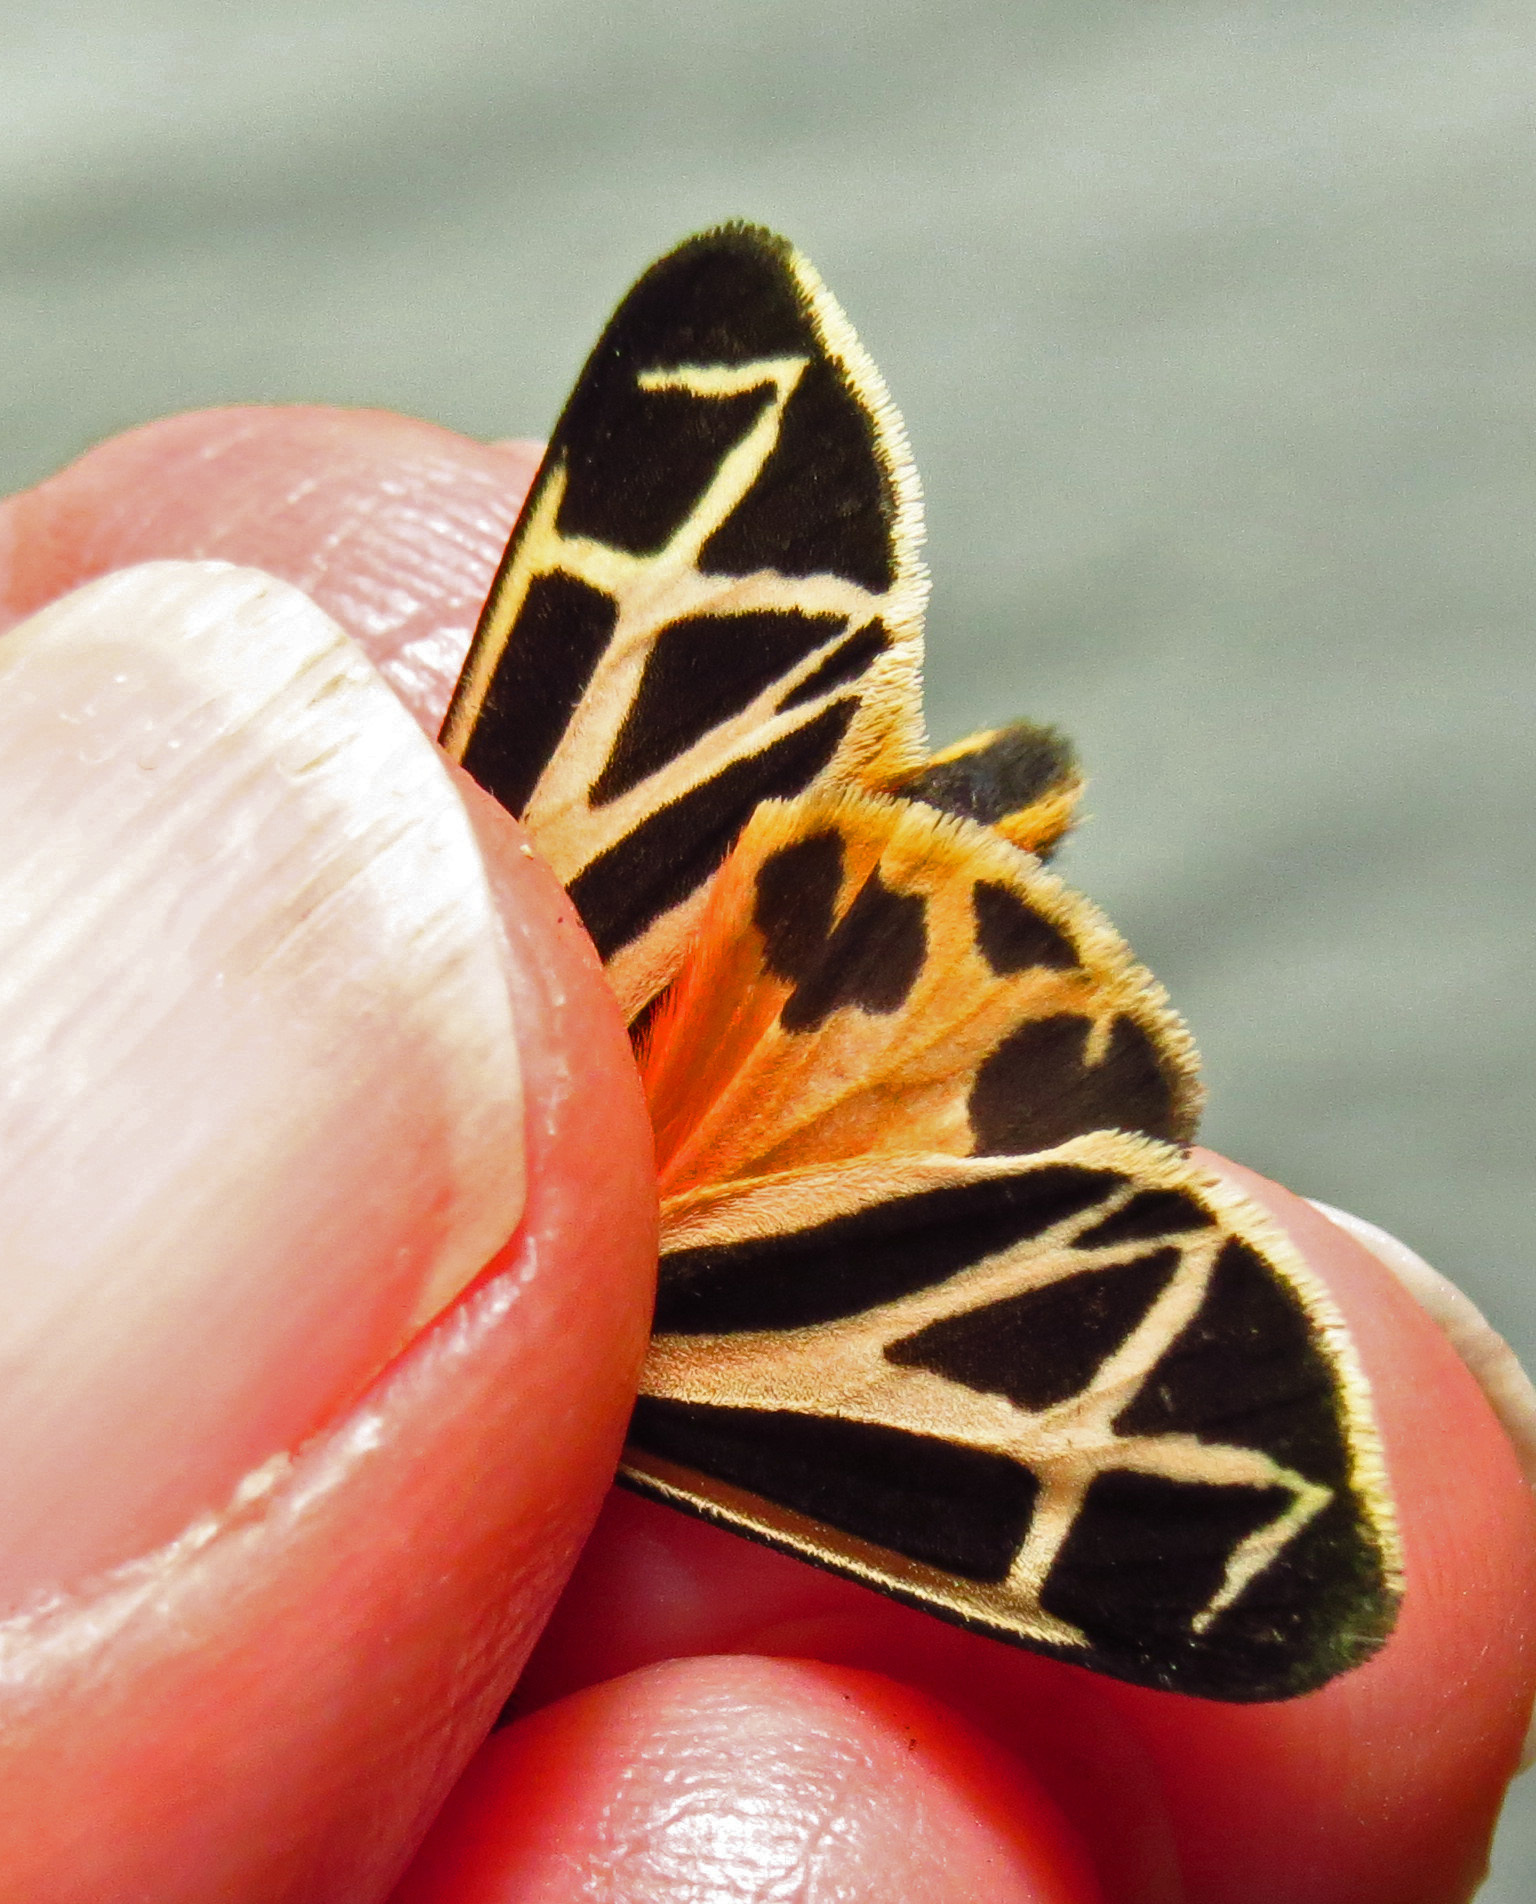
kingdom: Animalia
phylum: Arthropoda
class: Insecta
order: Lepidoptera
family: Erebidae
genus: Apantesis
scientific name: Apantesis phalerata
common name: Harnessed tiger moth
